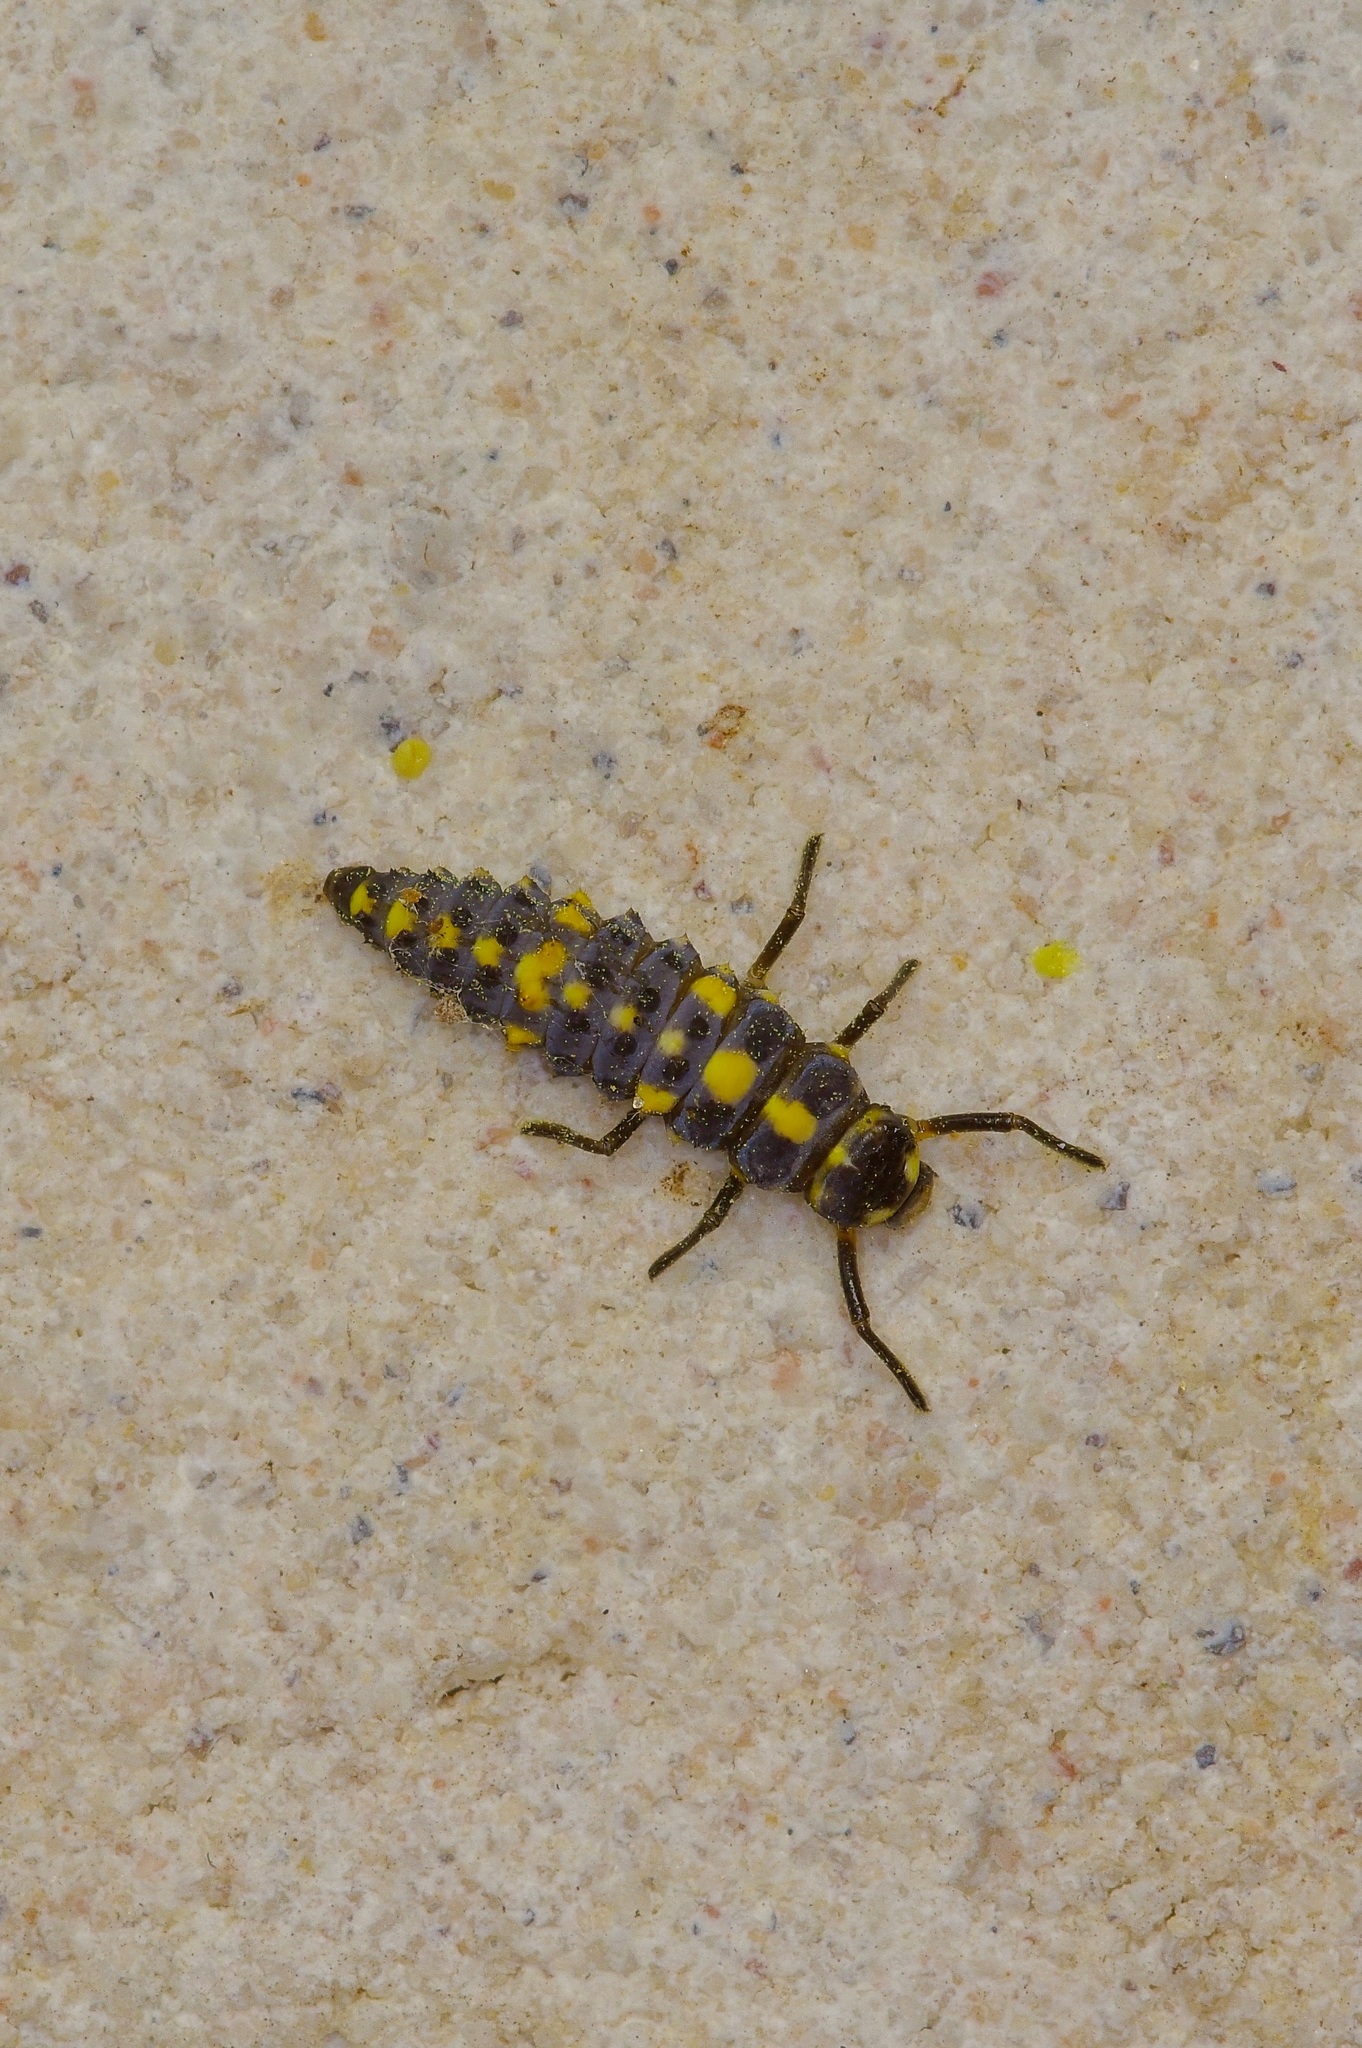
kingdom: Animalia
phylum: Arthropoda
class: Insecta
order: Coleoptera
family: Coccinellidae
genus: Olla
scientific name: Olla v-nigrum
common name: Ashy gray lady beetle
